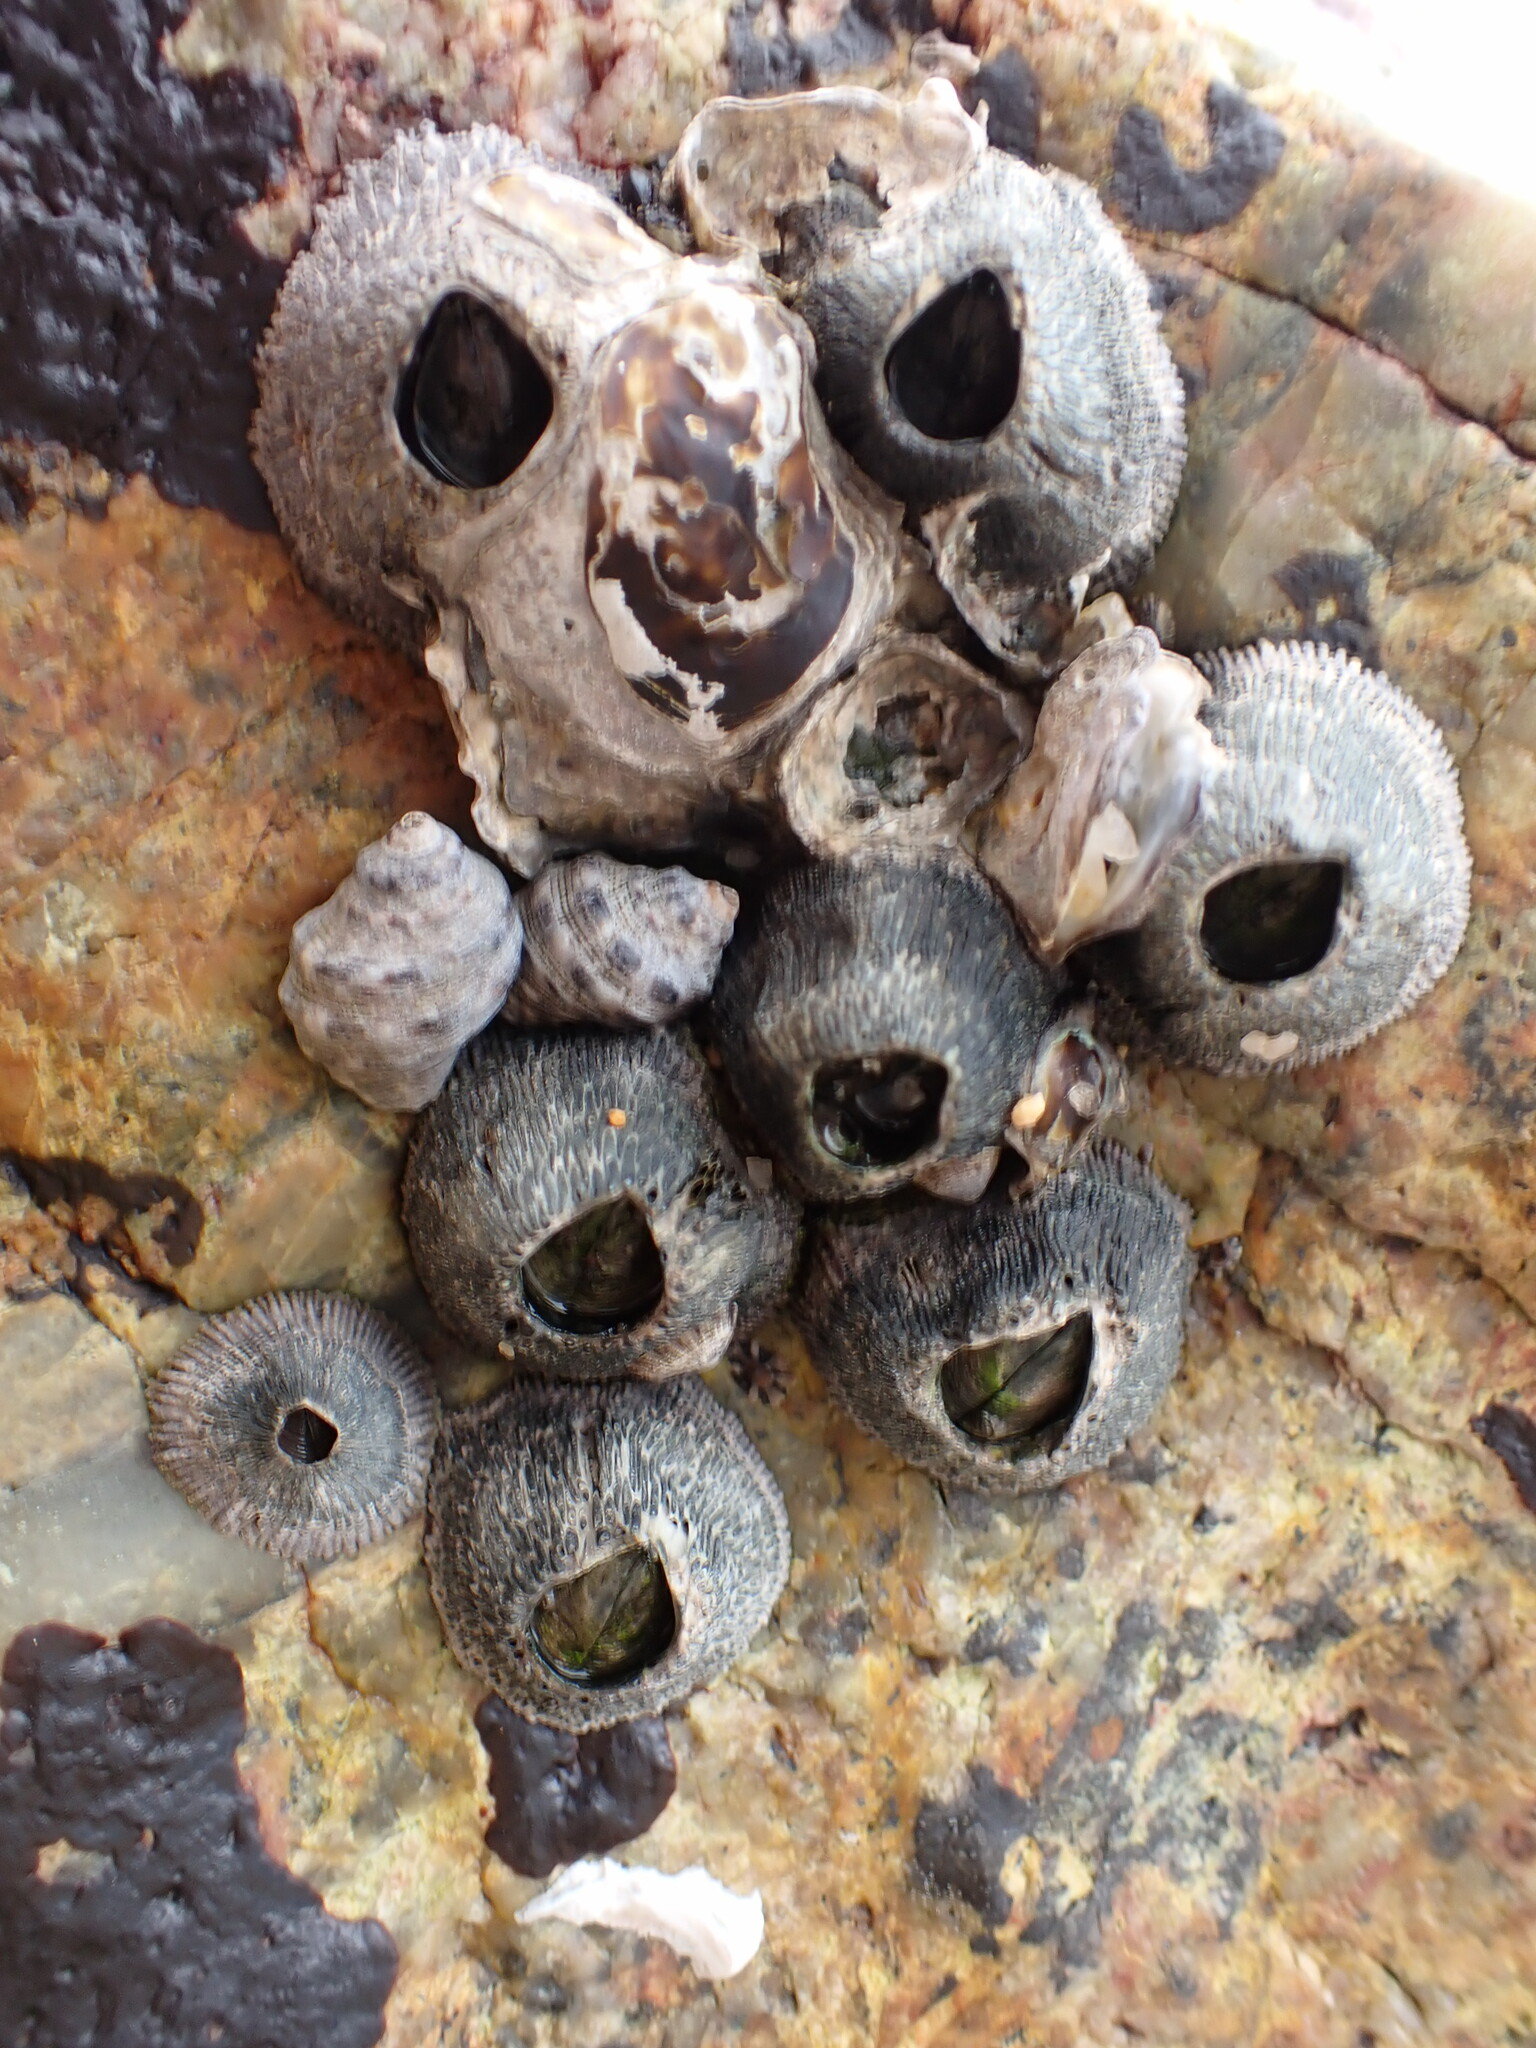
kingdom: Animalia
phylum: Arthropoda
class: Maxillopoda
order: Sessilia
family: Tetraclitidae
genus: Tetraclita
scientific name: Tetraclita squamosa
